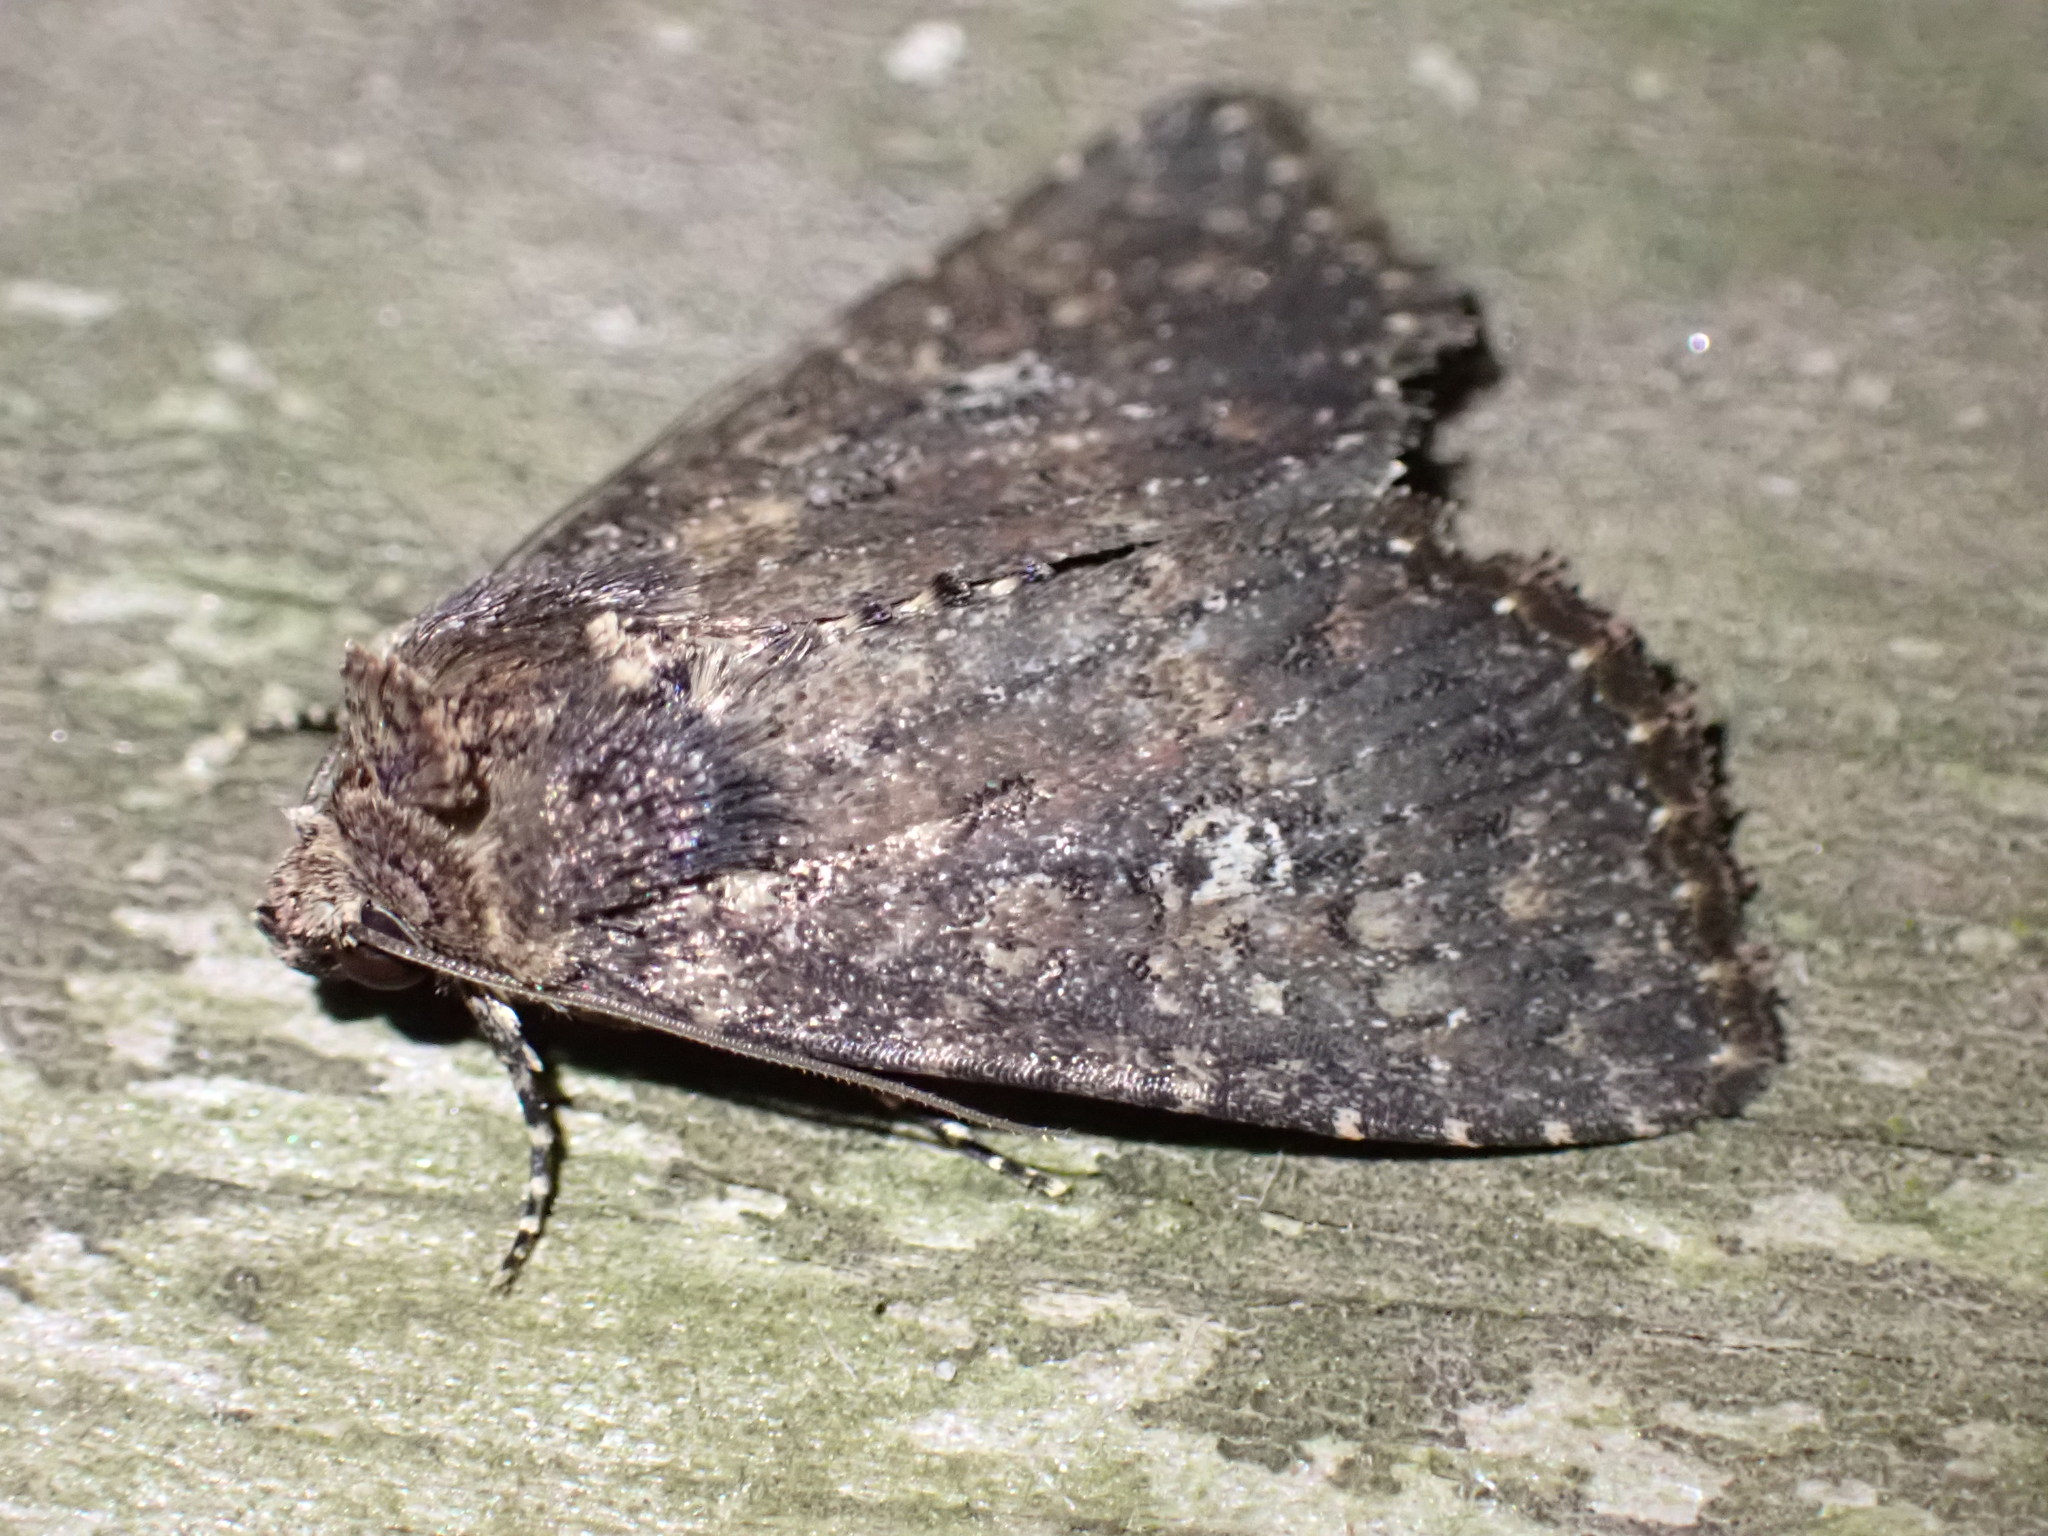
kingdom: Animalia
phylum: Arthropoda
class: Insecta
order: Lepidoptera
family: Noctuidae
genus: Condica
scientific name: Condica vecors
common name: Dusky groundling
